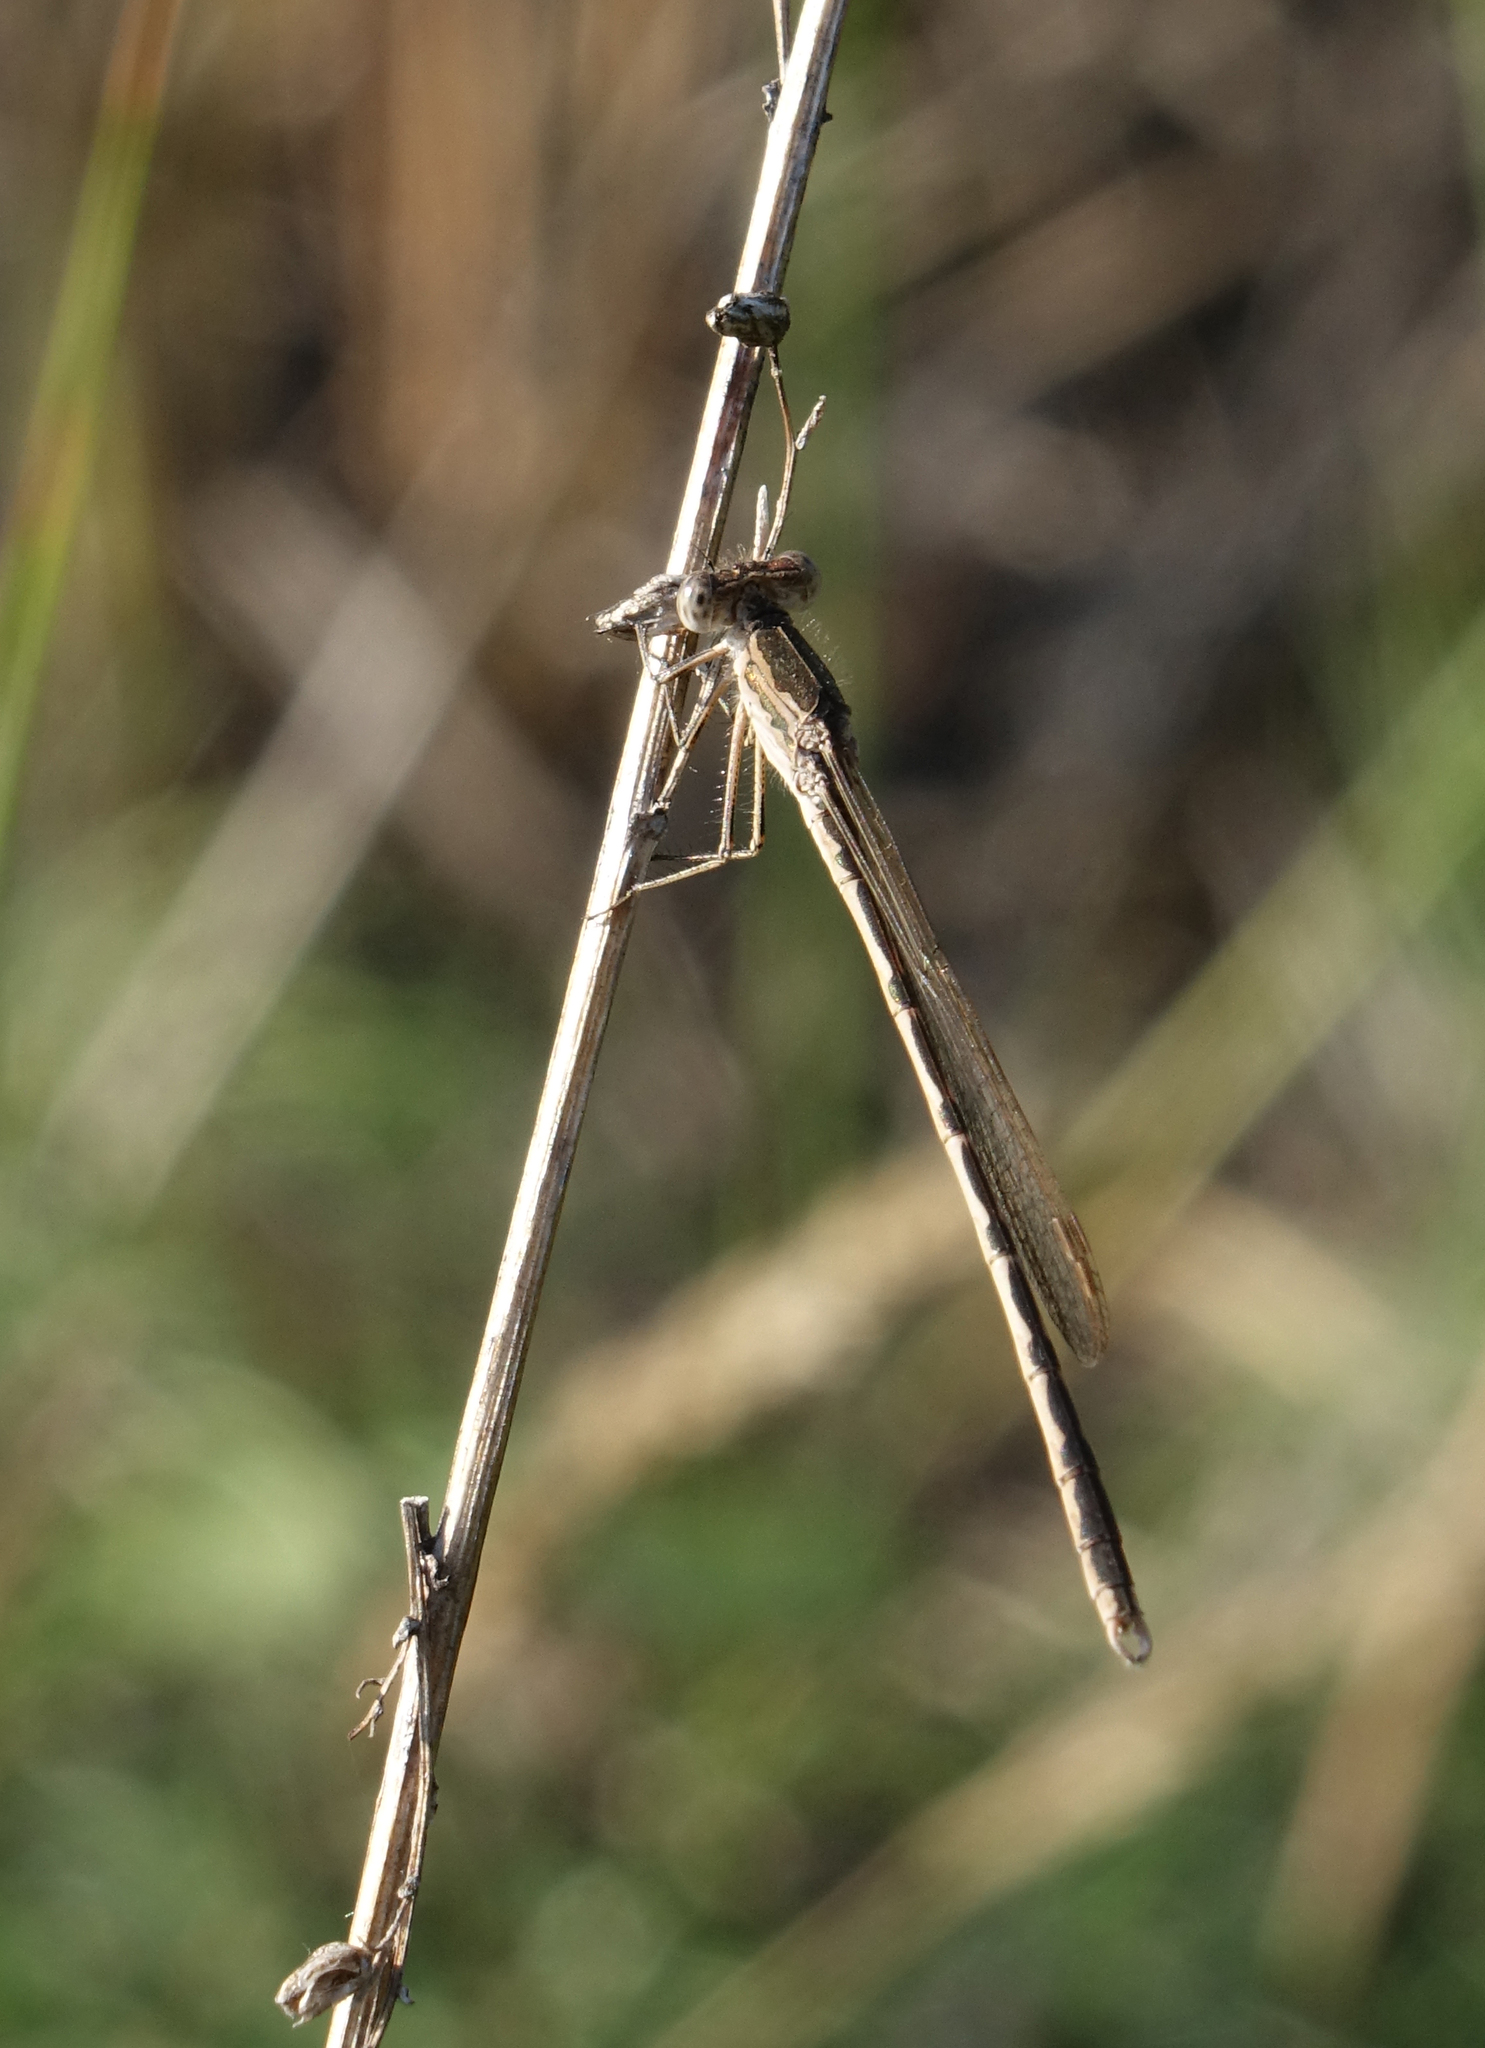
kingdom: Animalia
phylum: Arthropoda
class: Insecta
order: Odonata
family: Lestidae
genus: Sympecma
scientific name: Sympecma paedisca
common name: Siberian winter damsel
